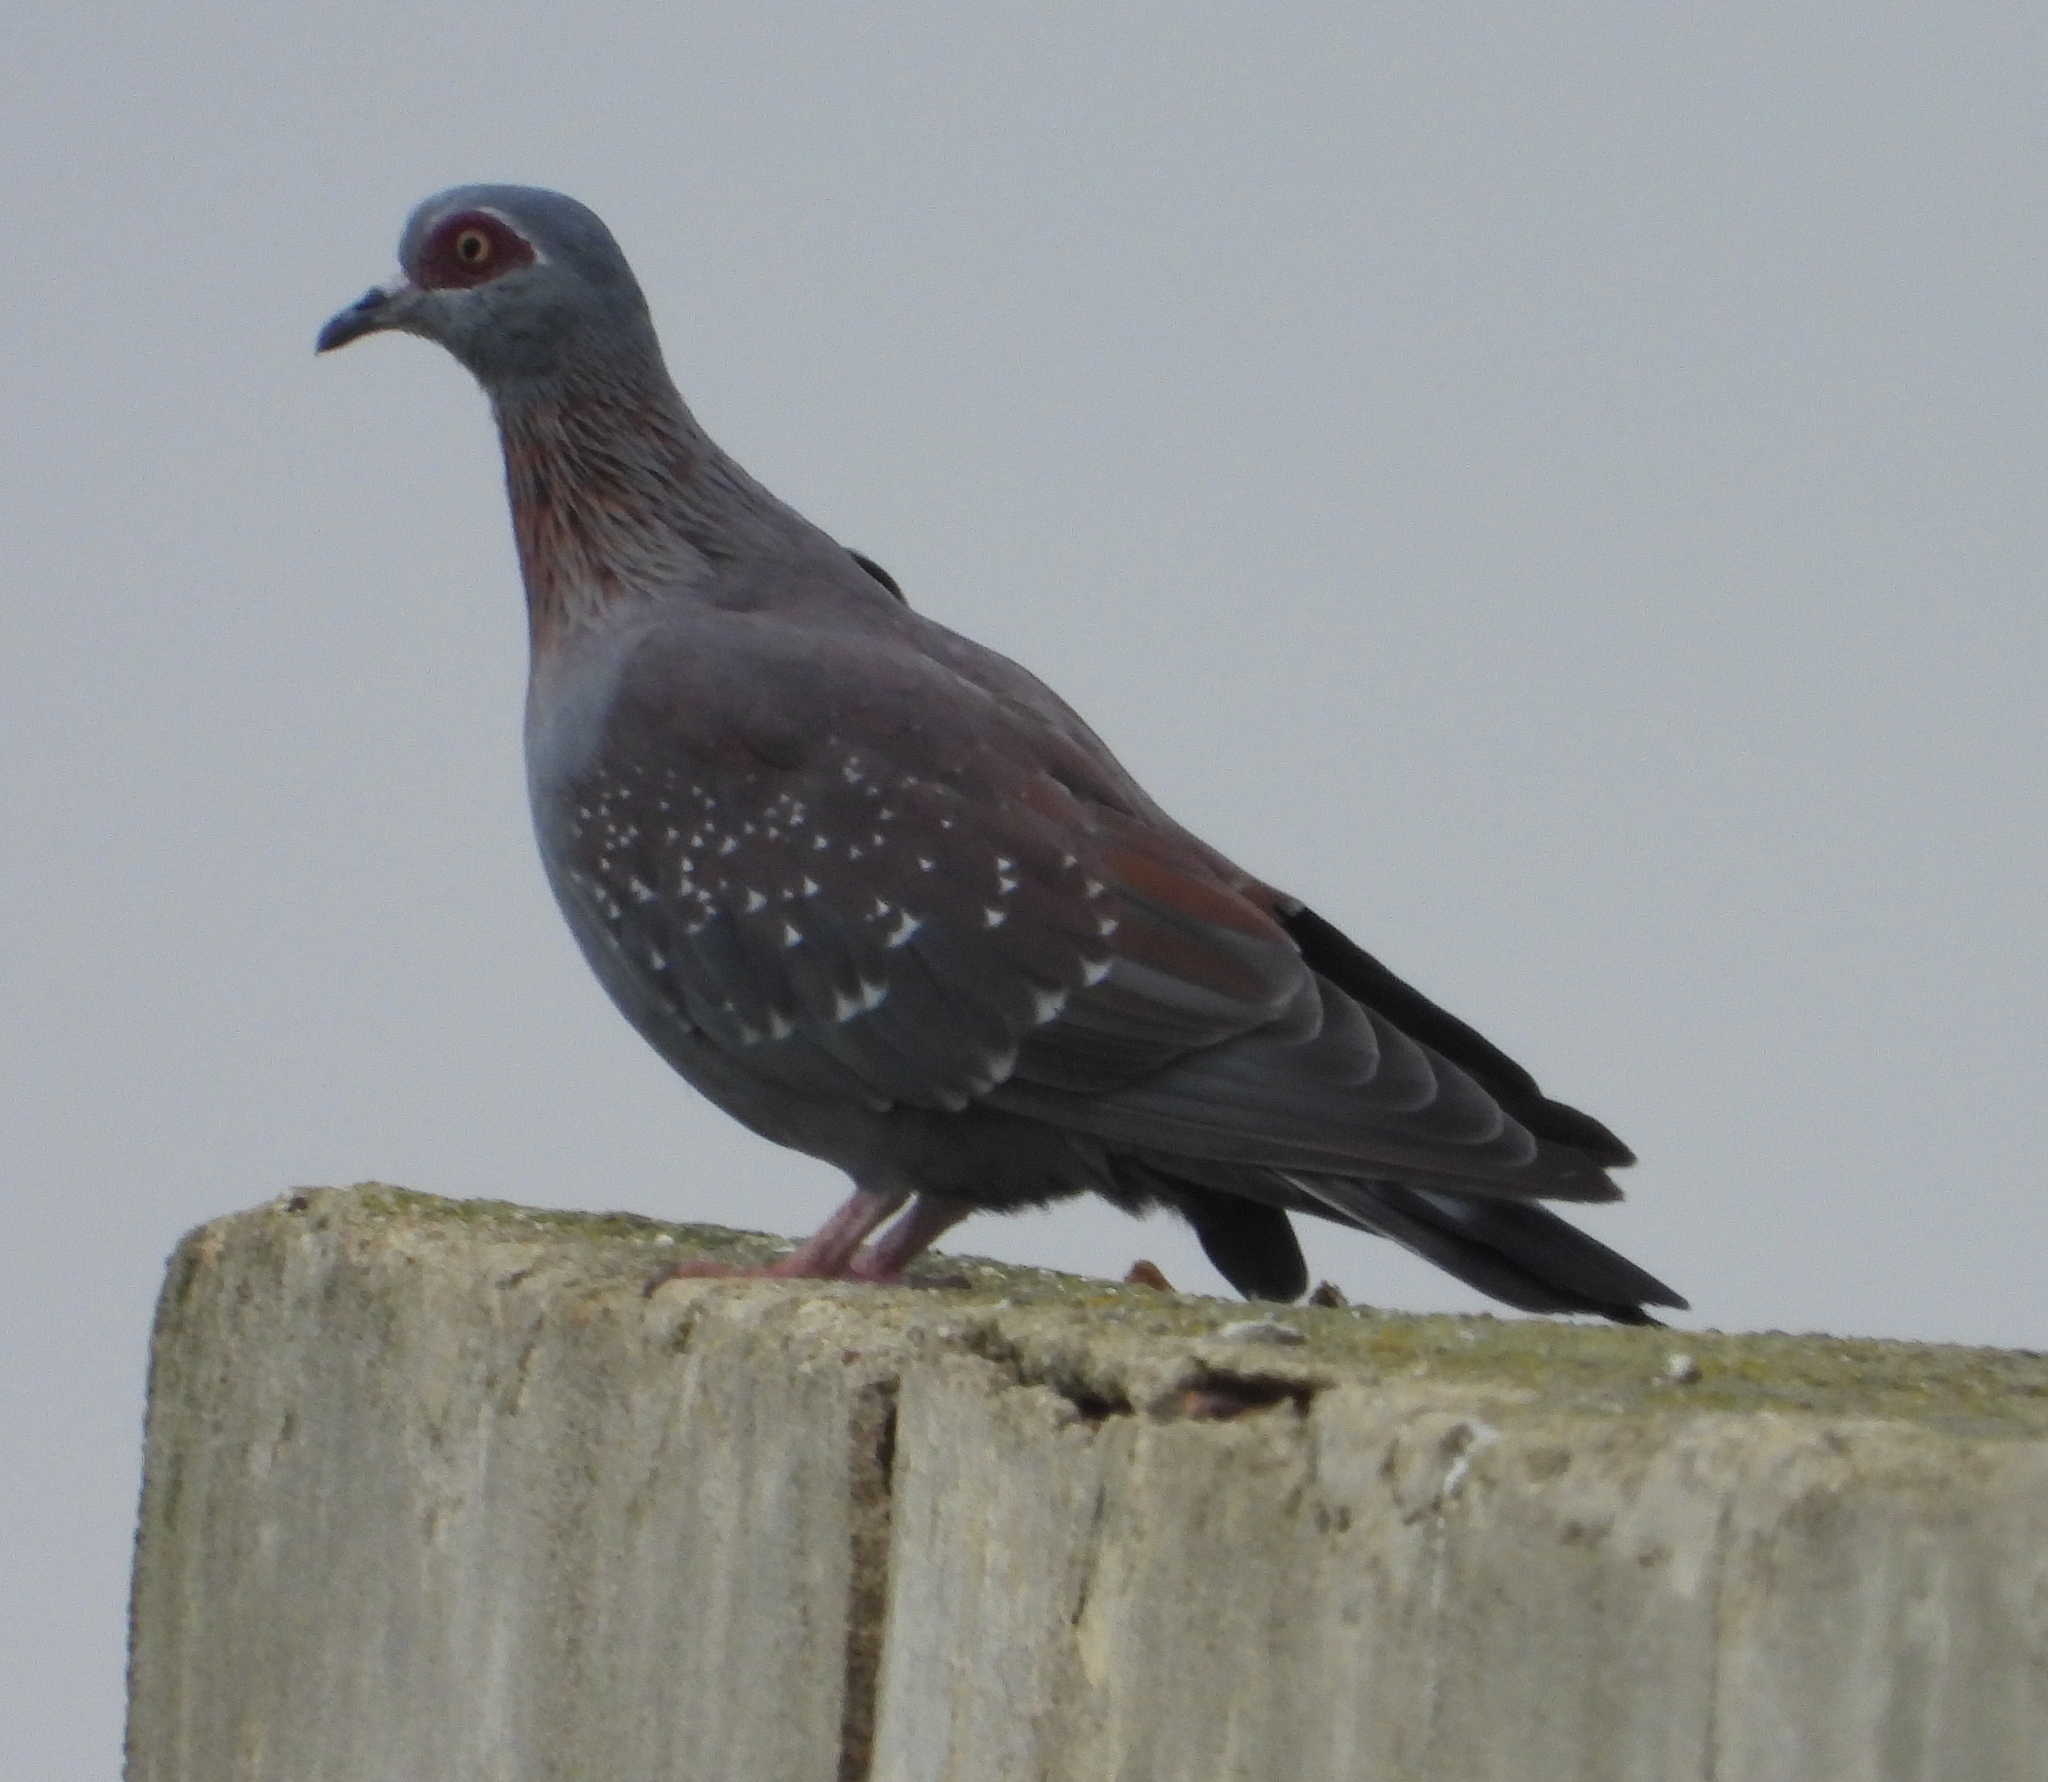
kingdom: Animalia
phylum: Chordata
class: Aves
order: Columbiformes
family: Columbidae
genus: Columba
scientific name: Columba guinea
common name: Speckled pigeon
